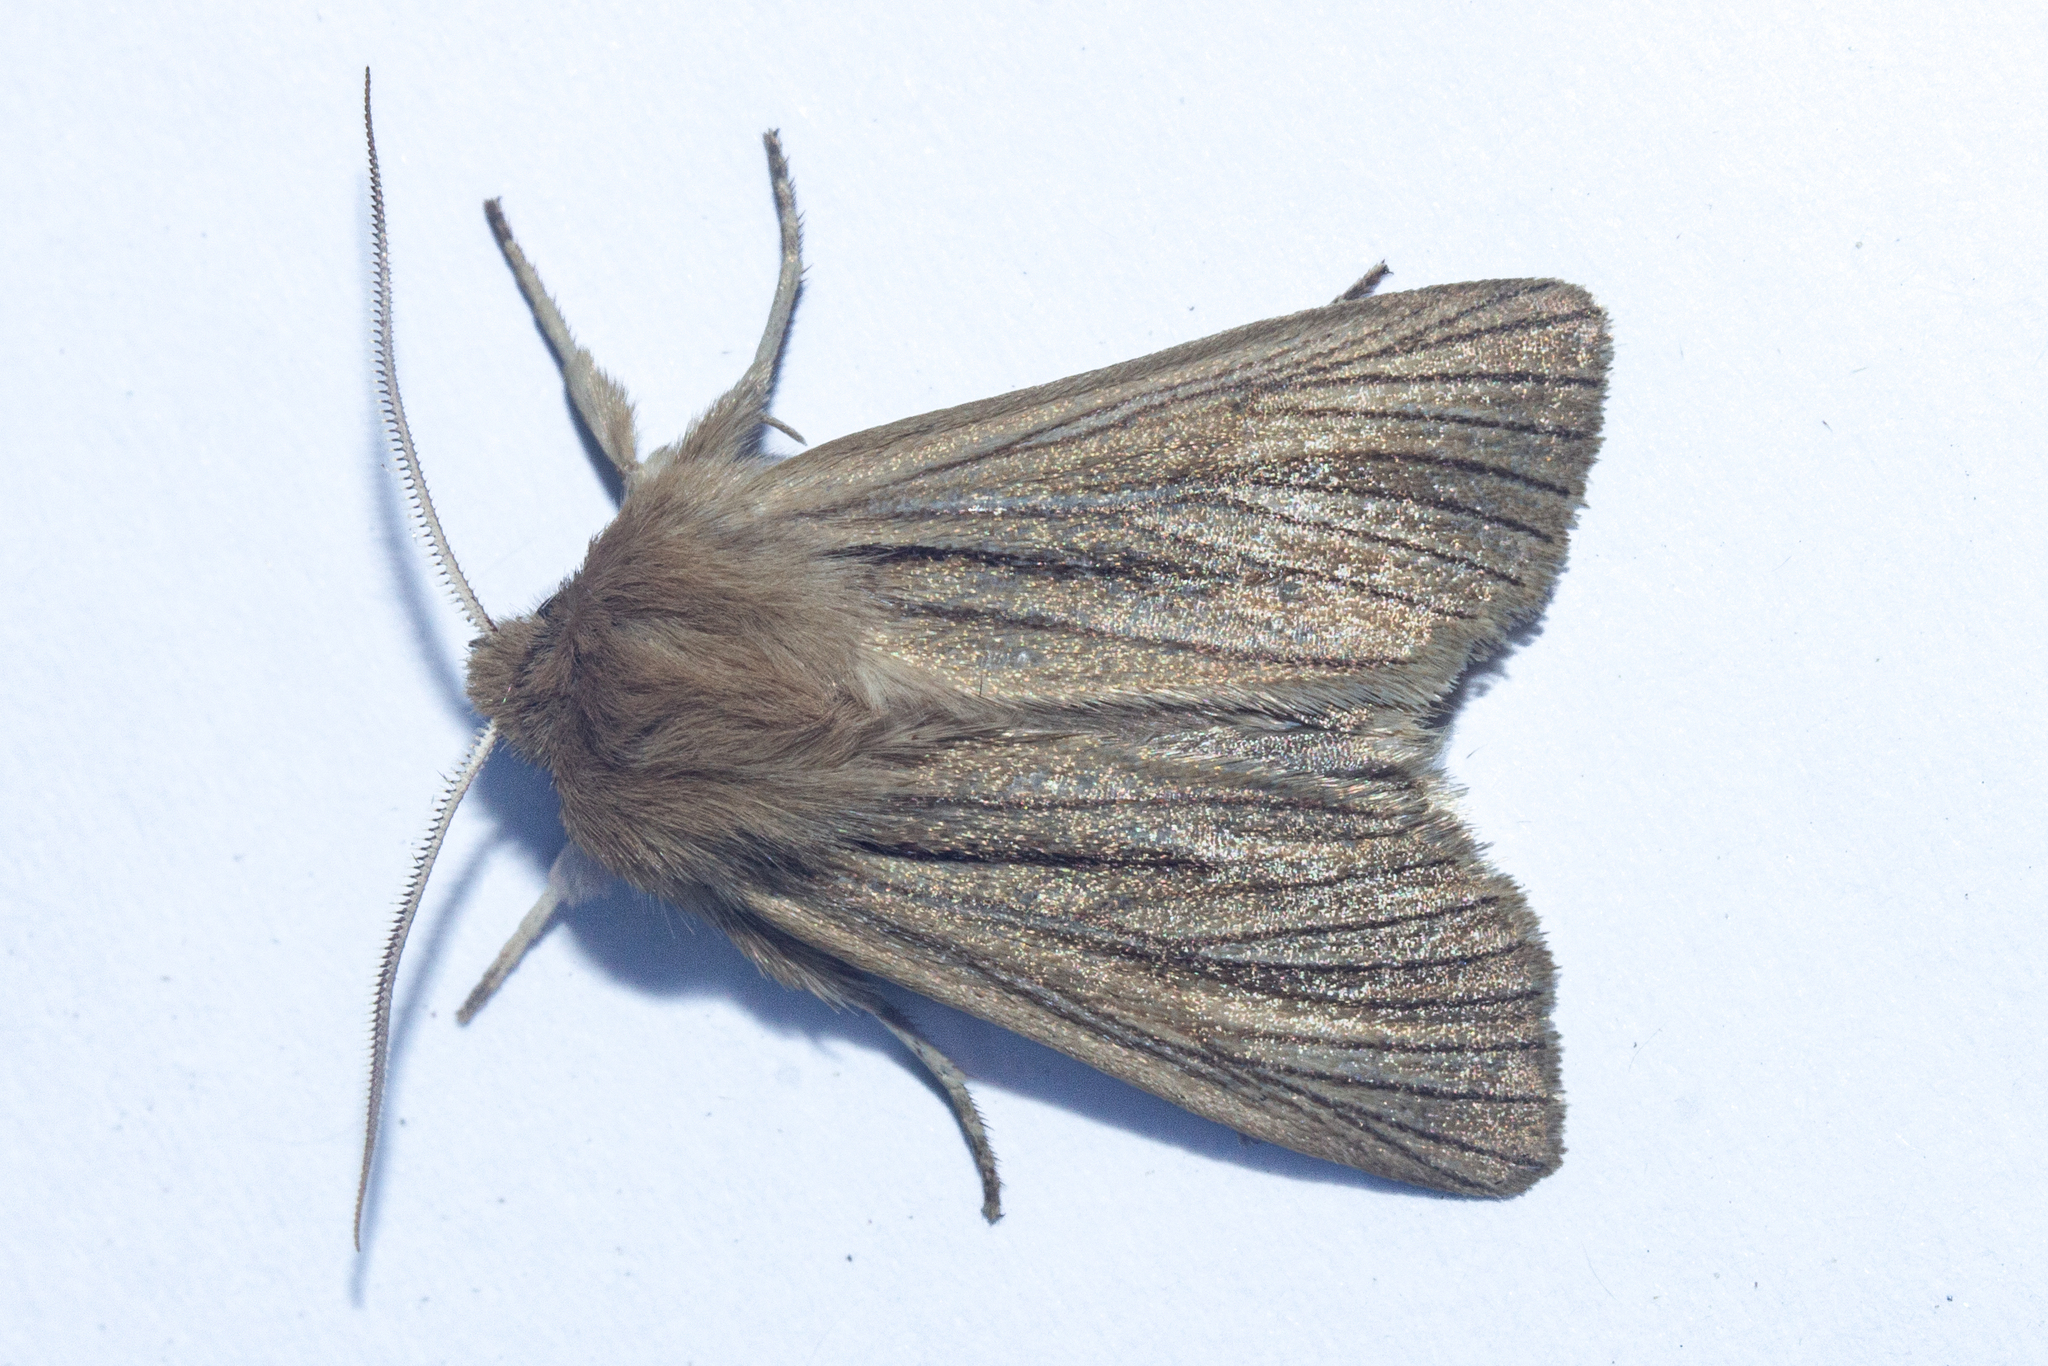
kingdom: Animalia
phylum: Arthropoda
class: Insecta
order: Lepidoptera
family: Noctuidae
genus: Ichneutica
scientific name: Ichneutica
